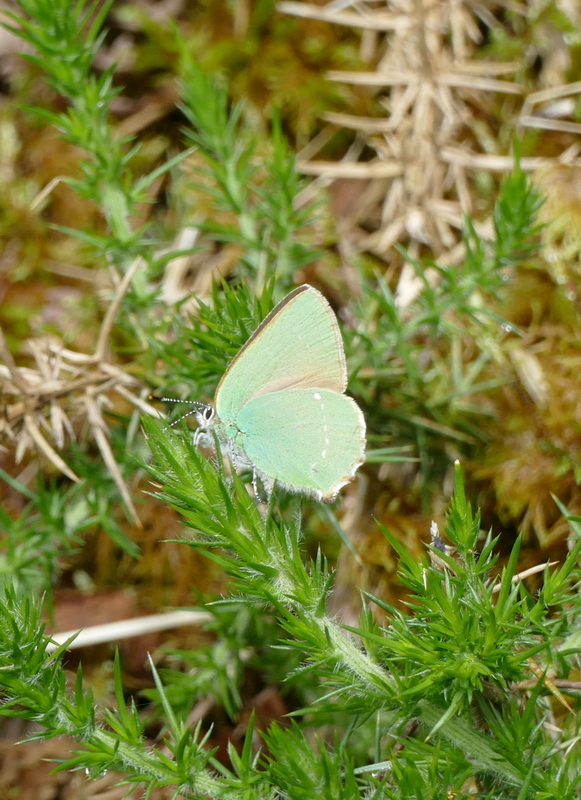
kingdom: Animalia
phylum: Arthropoda
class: Insecta
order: Lepidoptera
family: Lycaenidae
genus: Callophrys
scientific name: Callophrys rubi
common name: Green hairstreak
